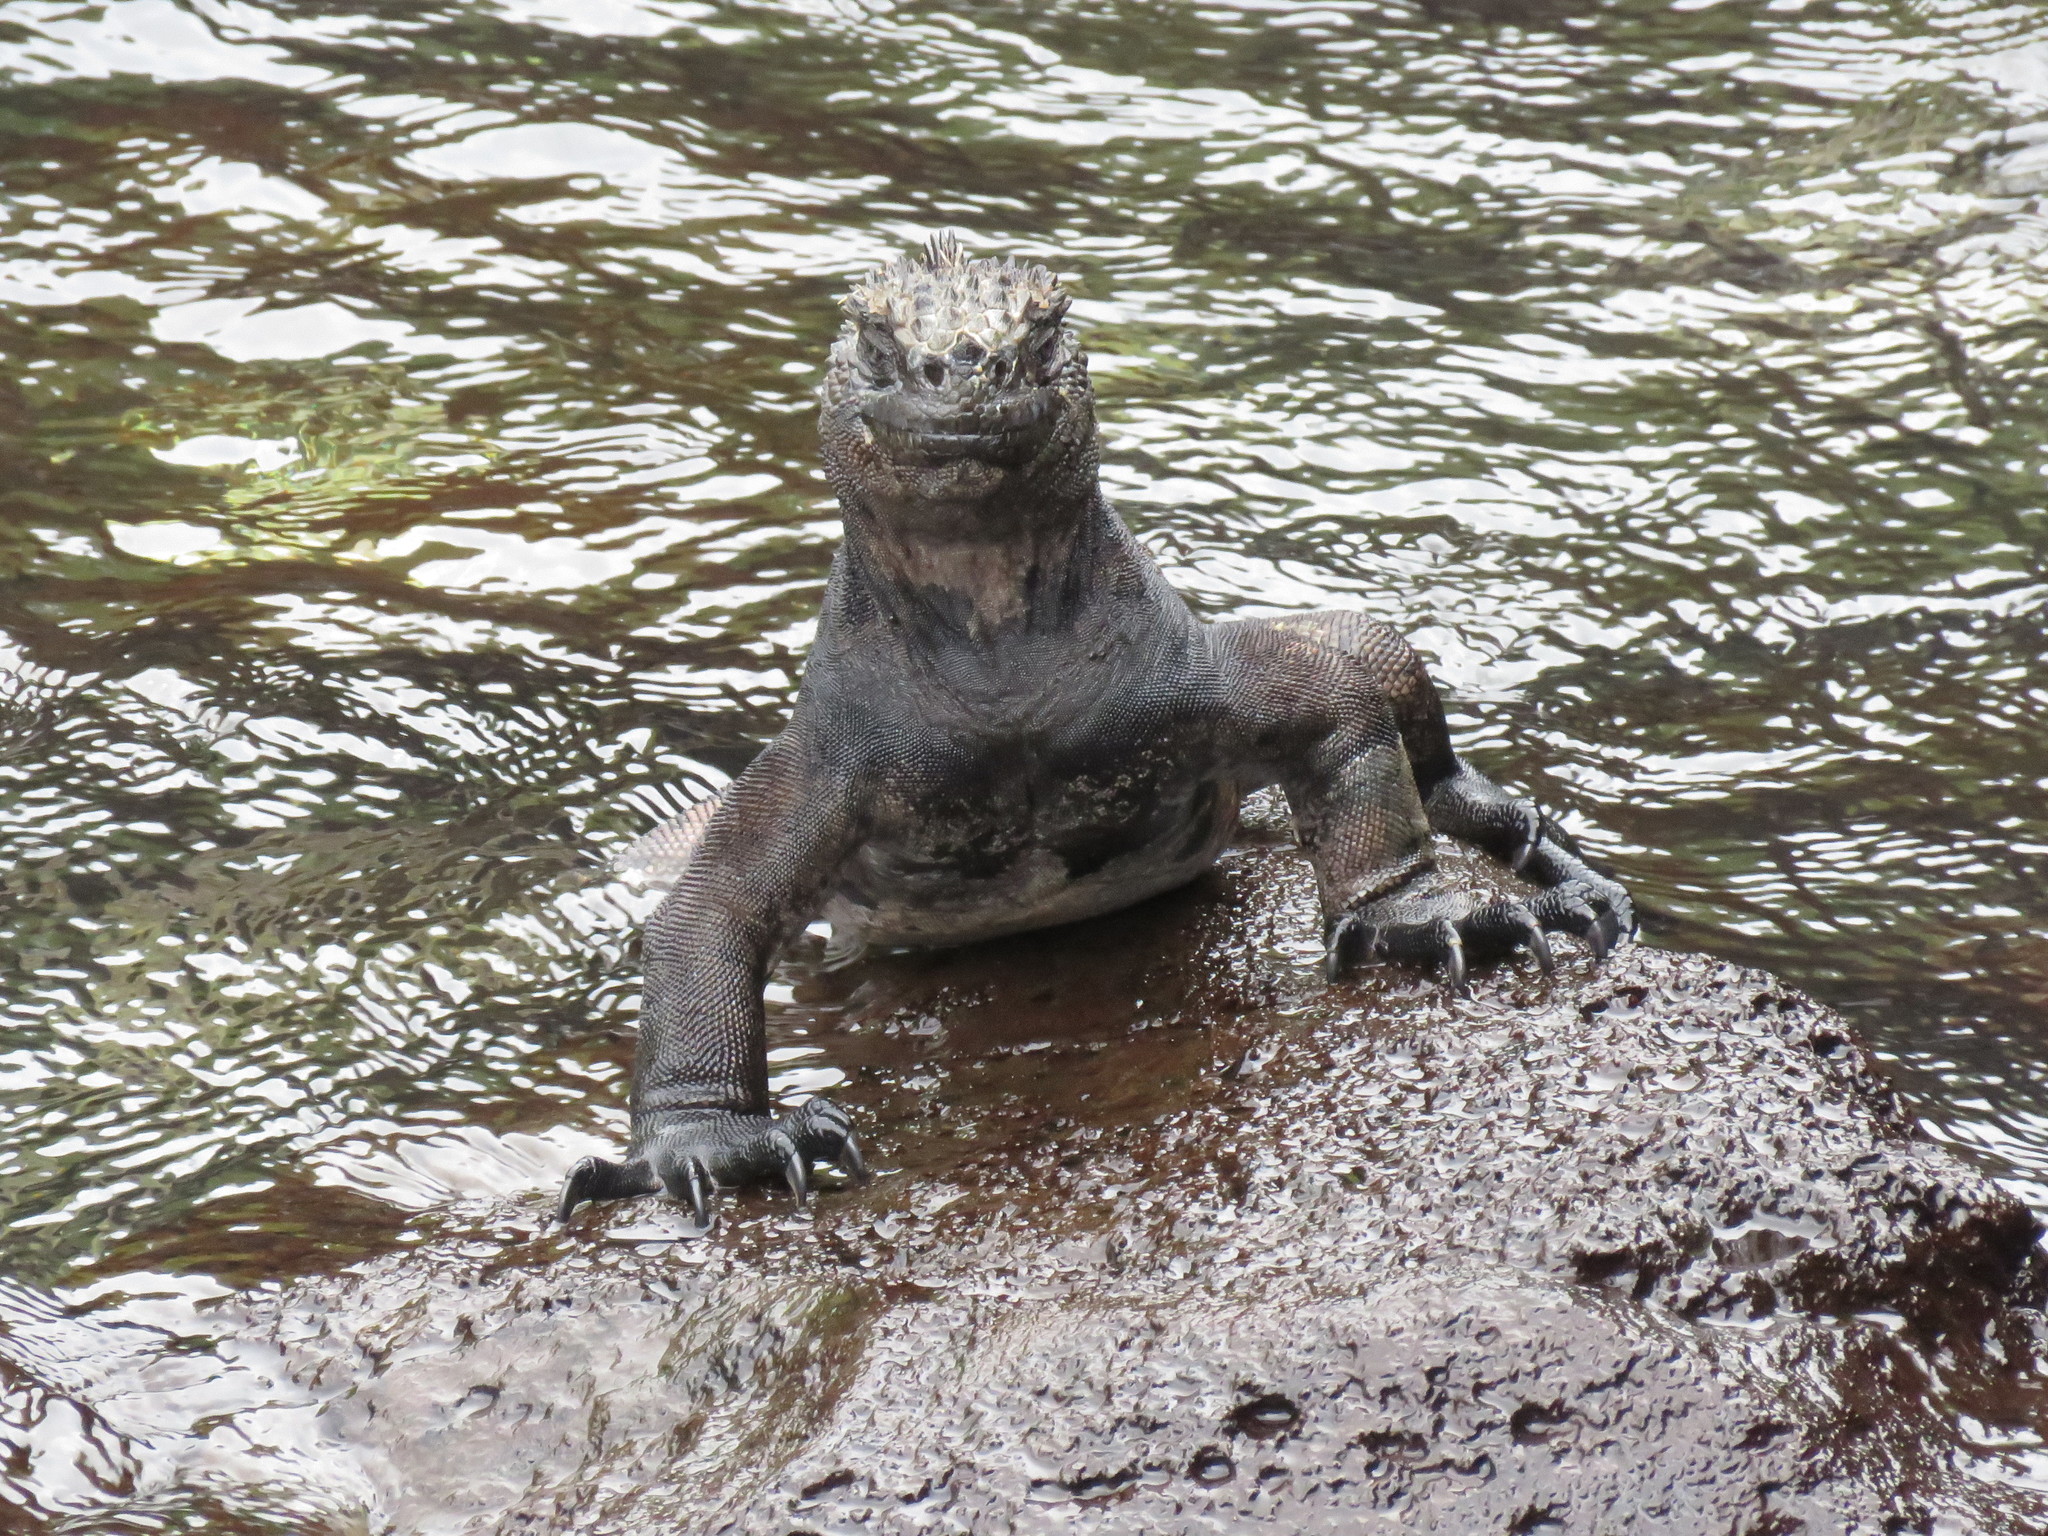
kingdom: Animalia
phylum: Chordata
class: Squamata
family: Iguanidae
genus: Amblyrhynchus
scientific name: Amblyrhynchus cristatus
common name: Marine iguana
